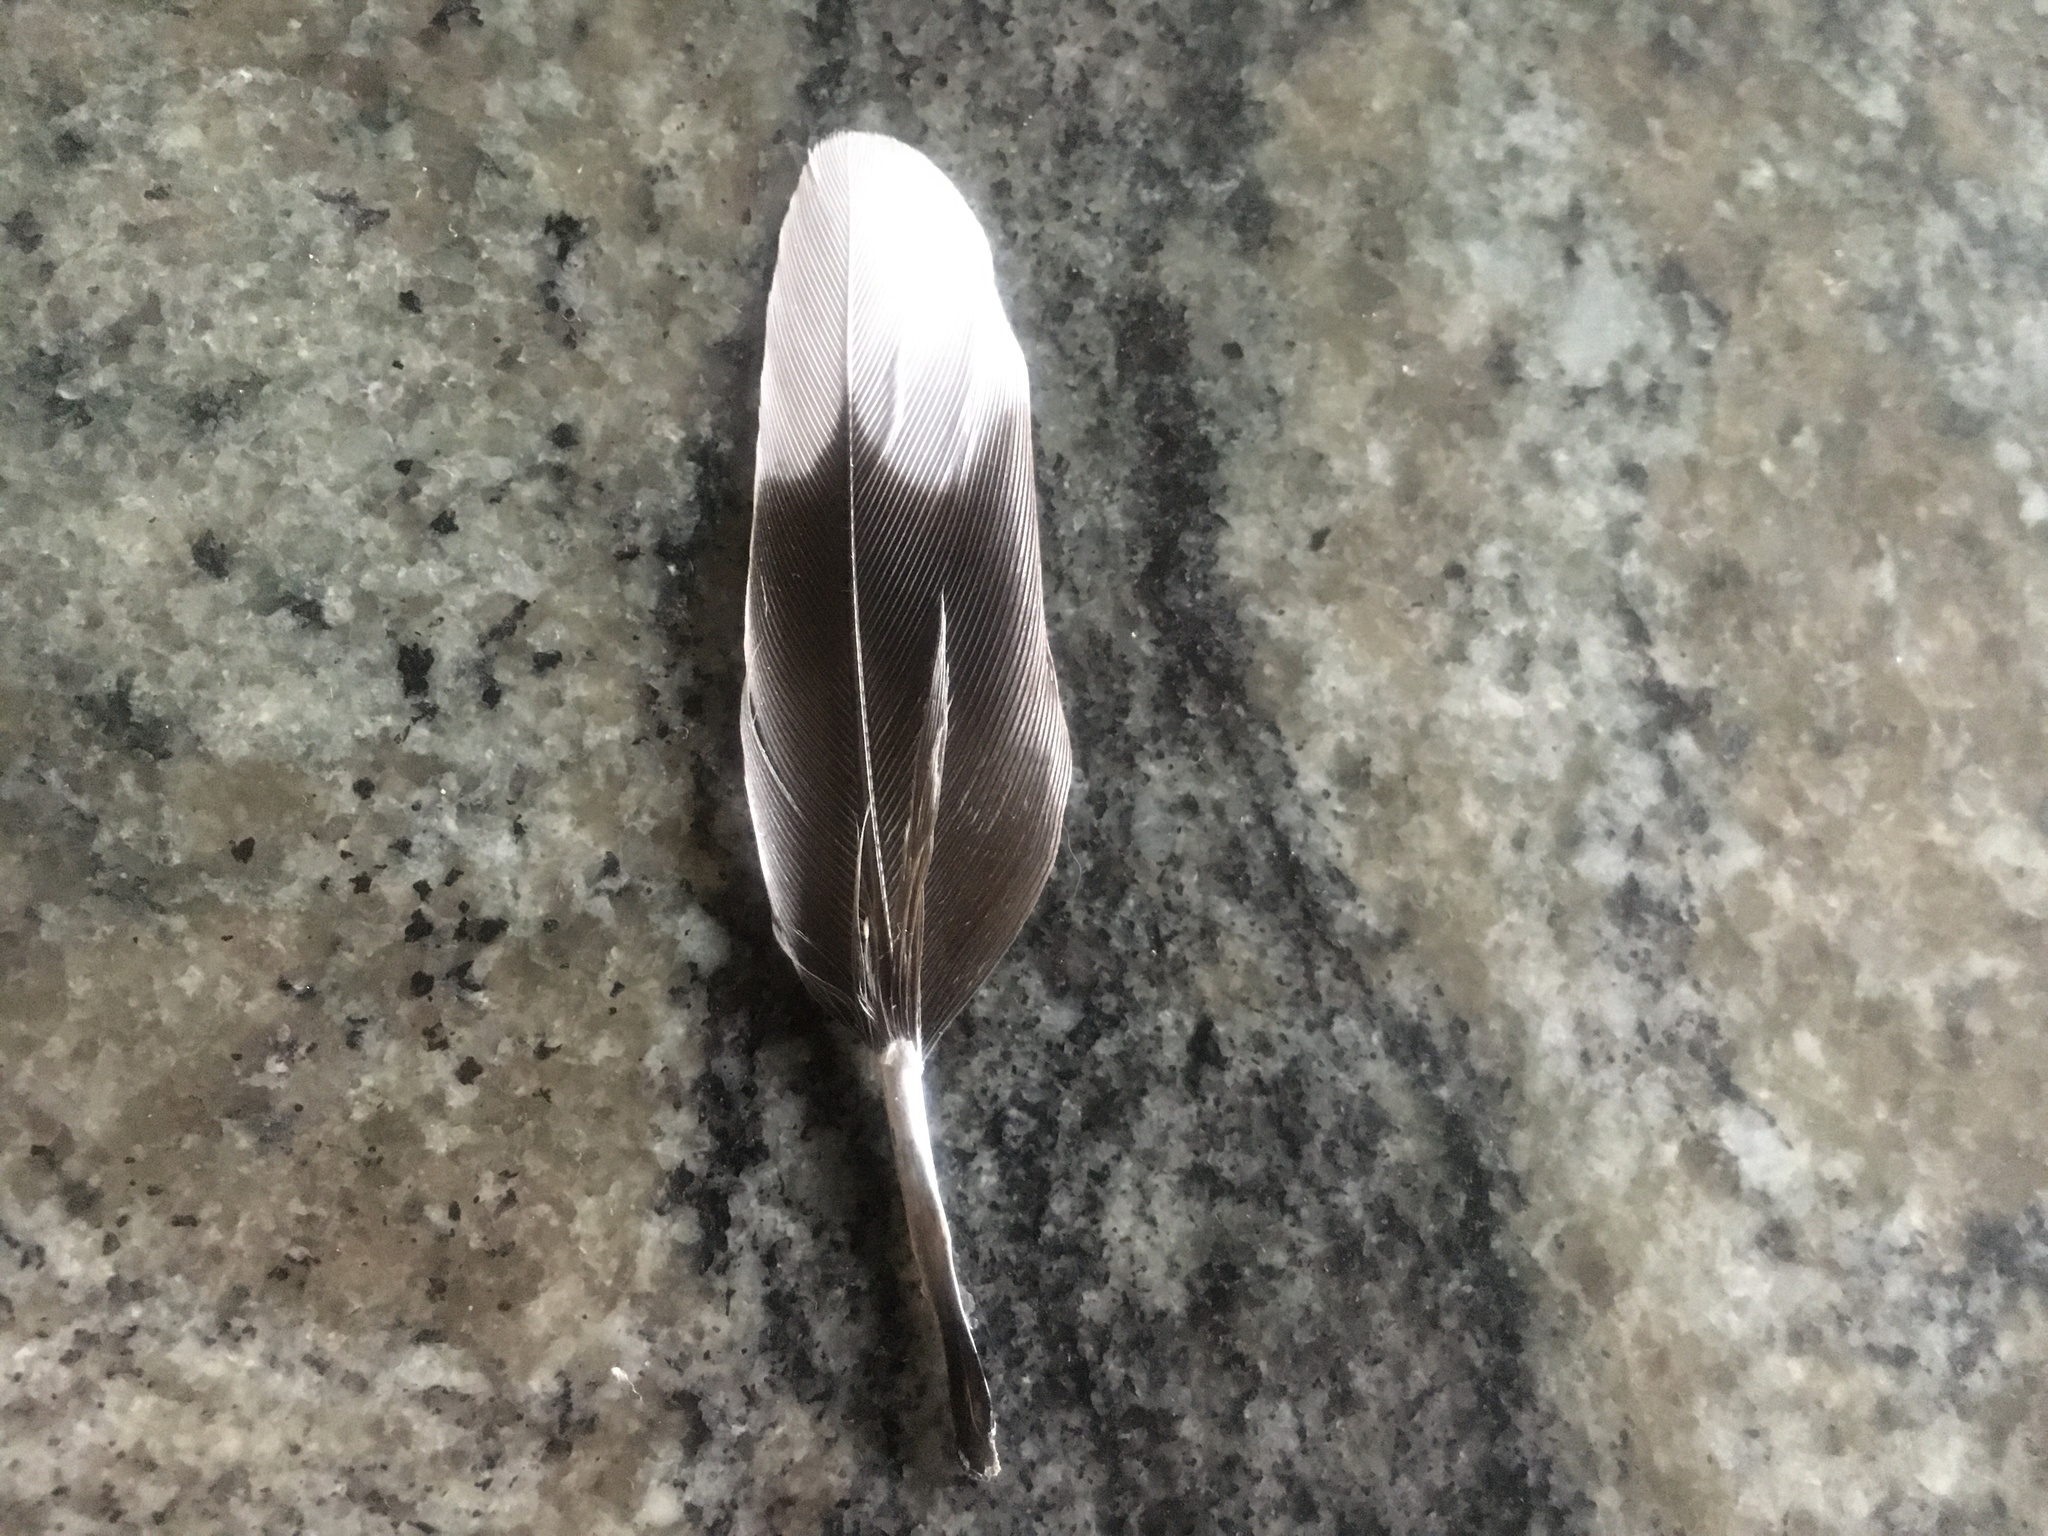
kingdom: Animalia
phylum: Chordata
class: Aves
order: Columbiformes
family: Columbidae
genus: Zenaida
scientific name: Zenaida macroura
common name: Mourning dove
